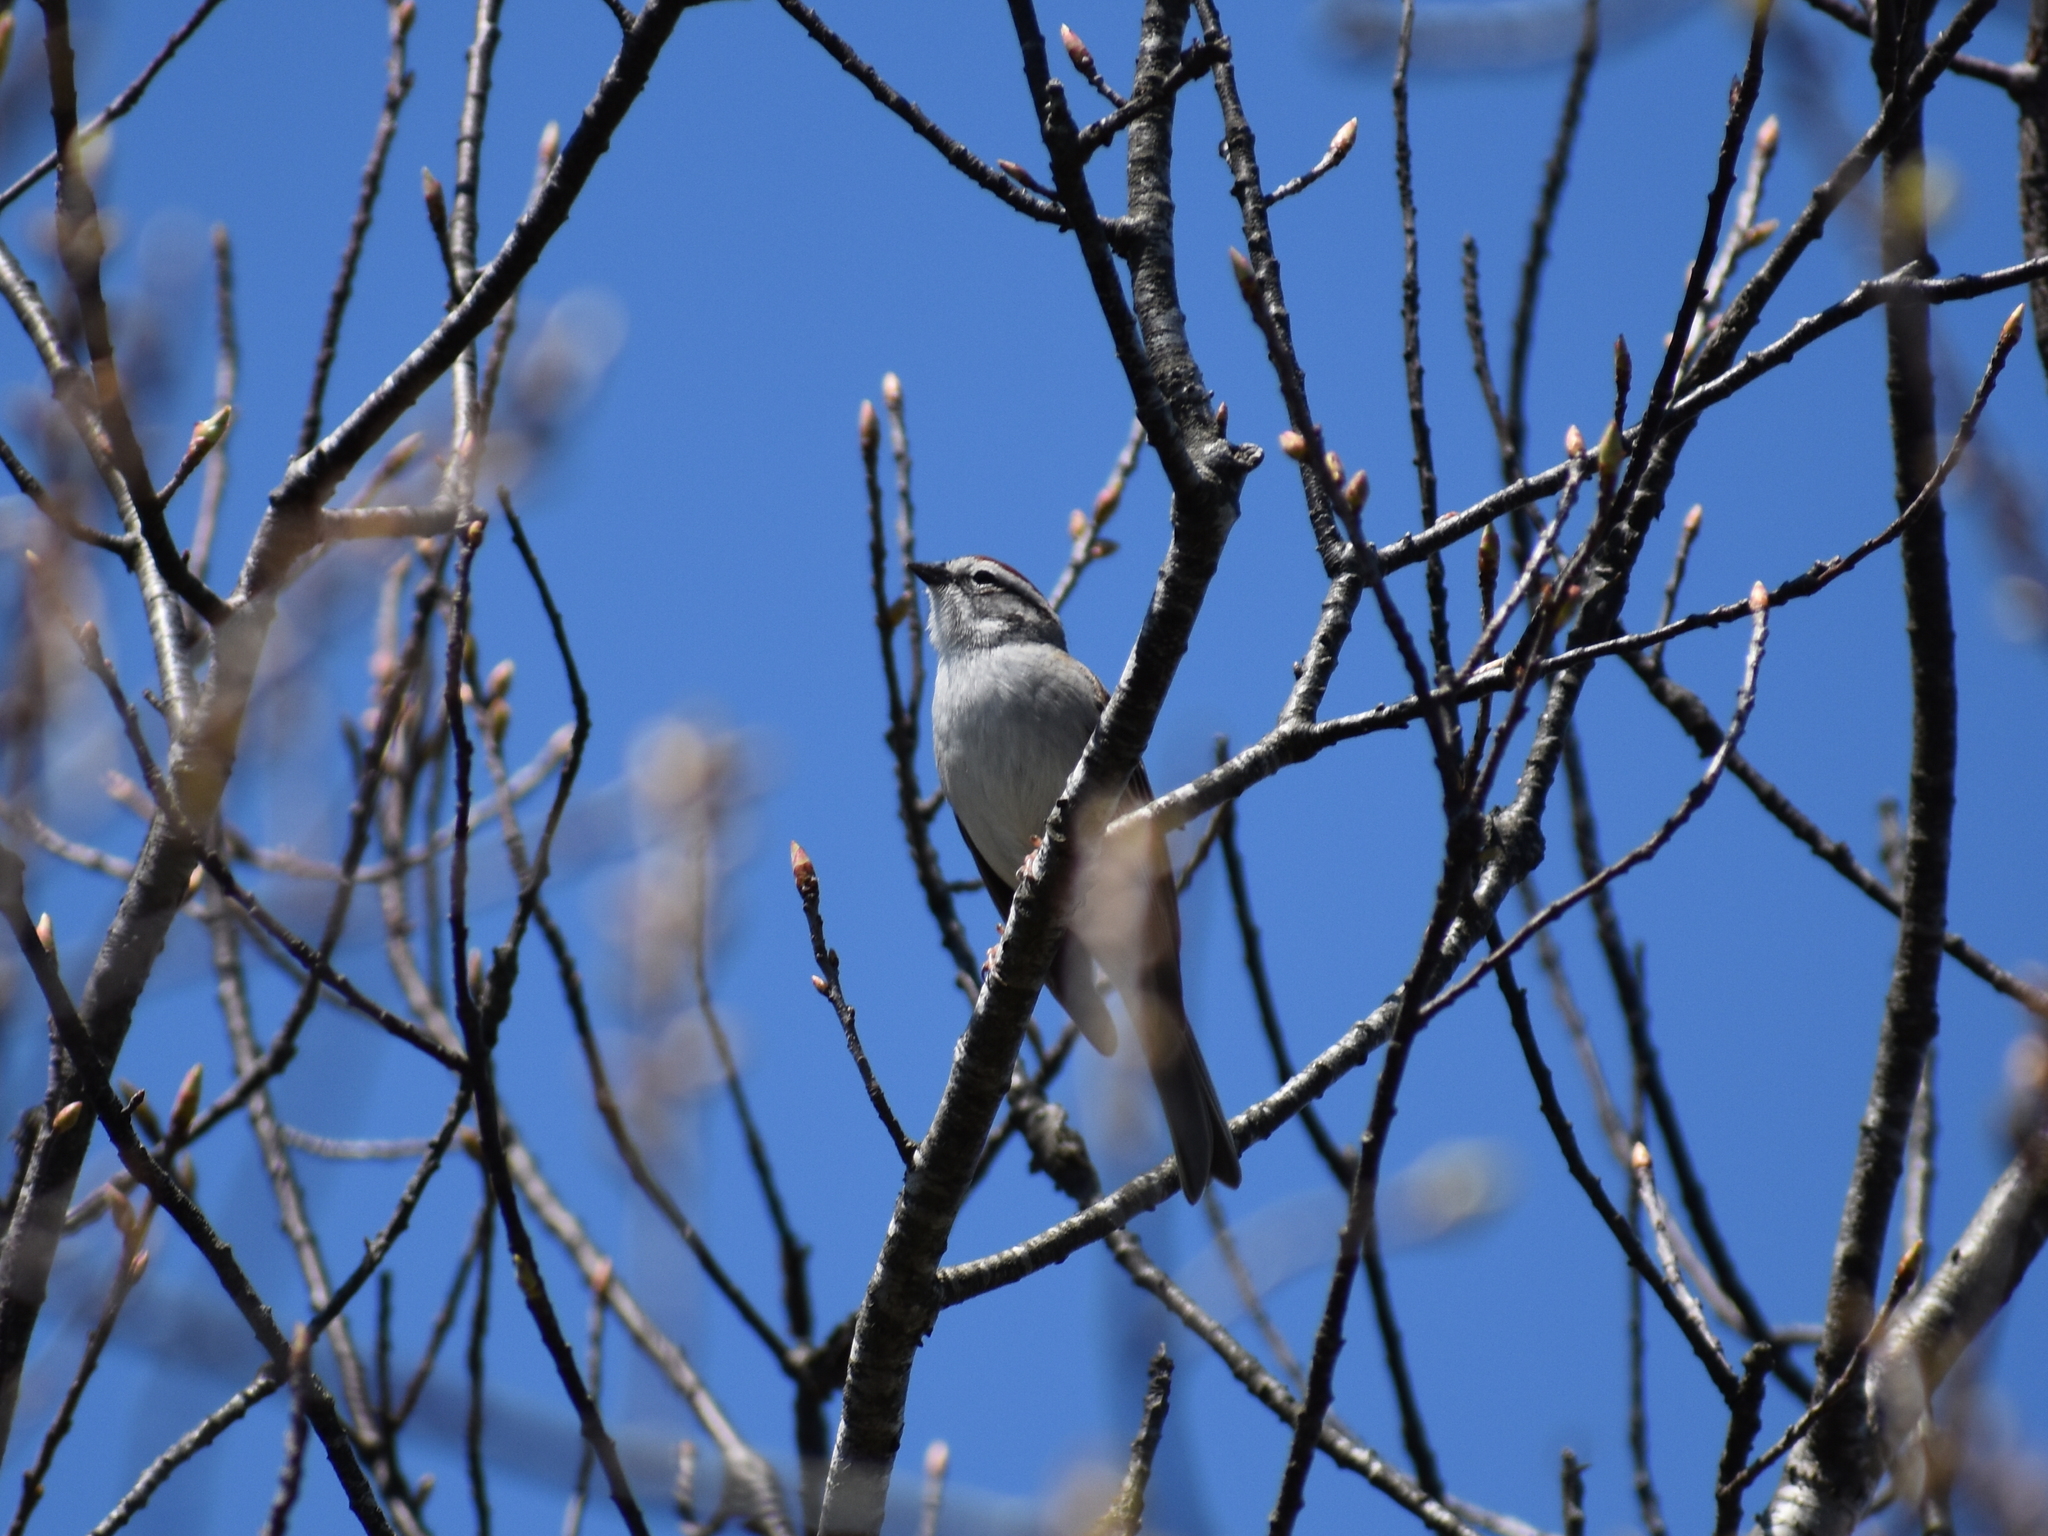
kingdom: Animalia
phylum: Chordata
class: Aves
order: Passeriformes
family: Passerellidae
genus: Spizella
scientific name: Spizella passerina
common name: Chipping sparrow
